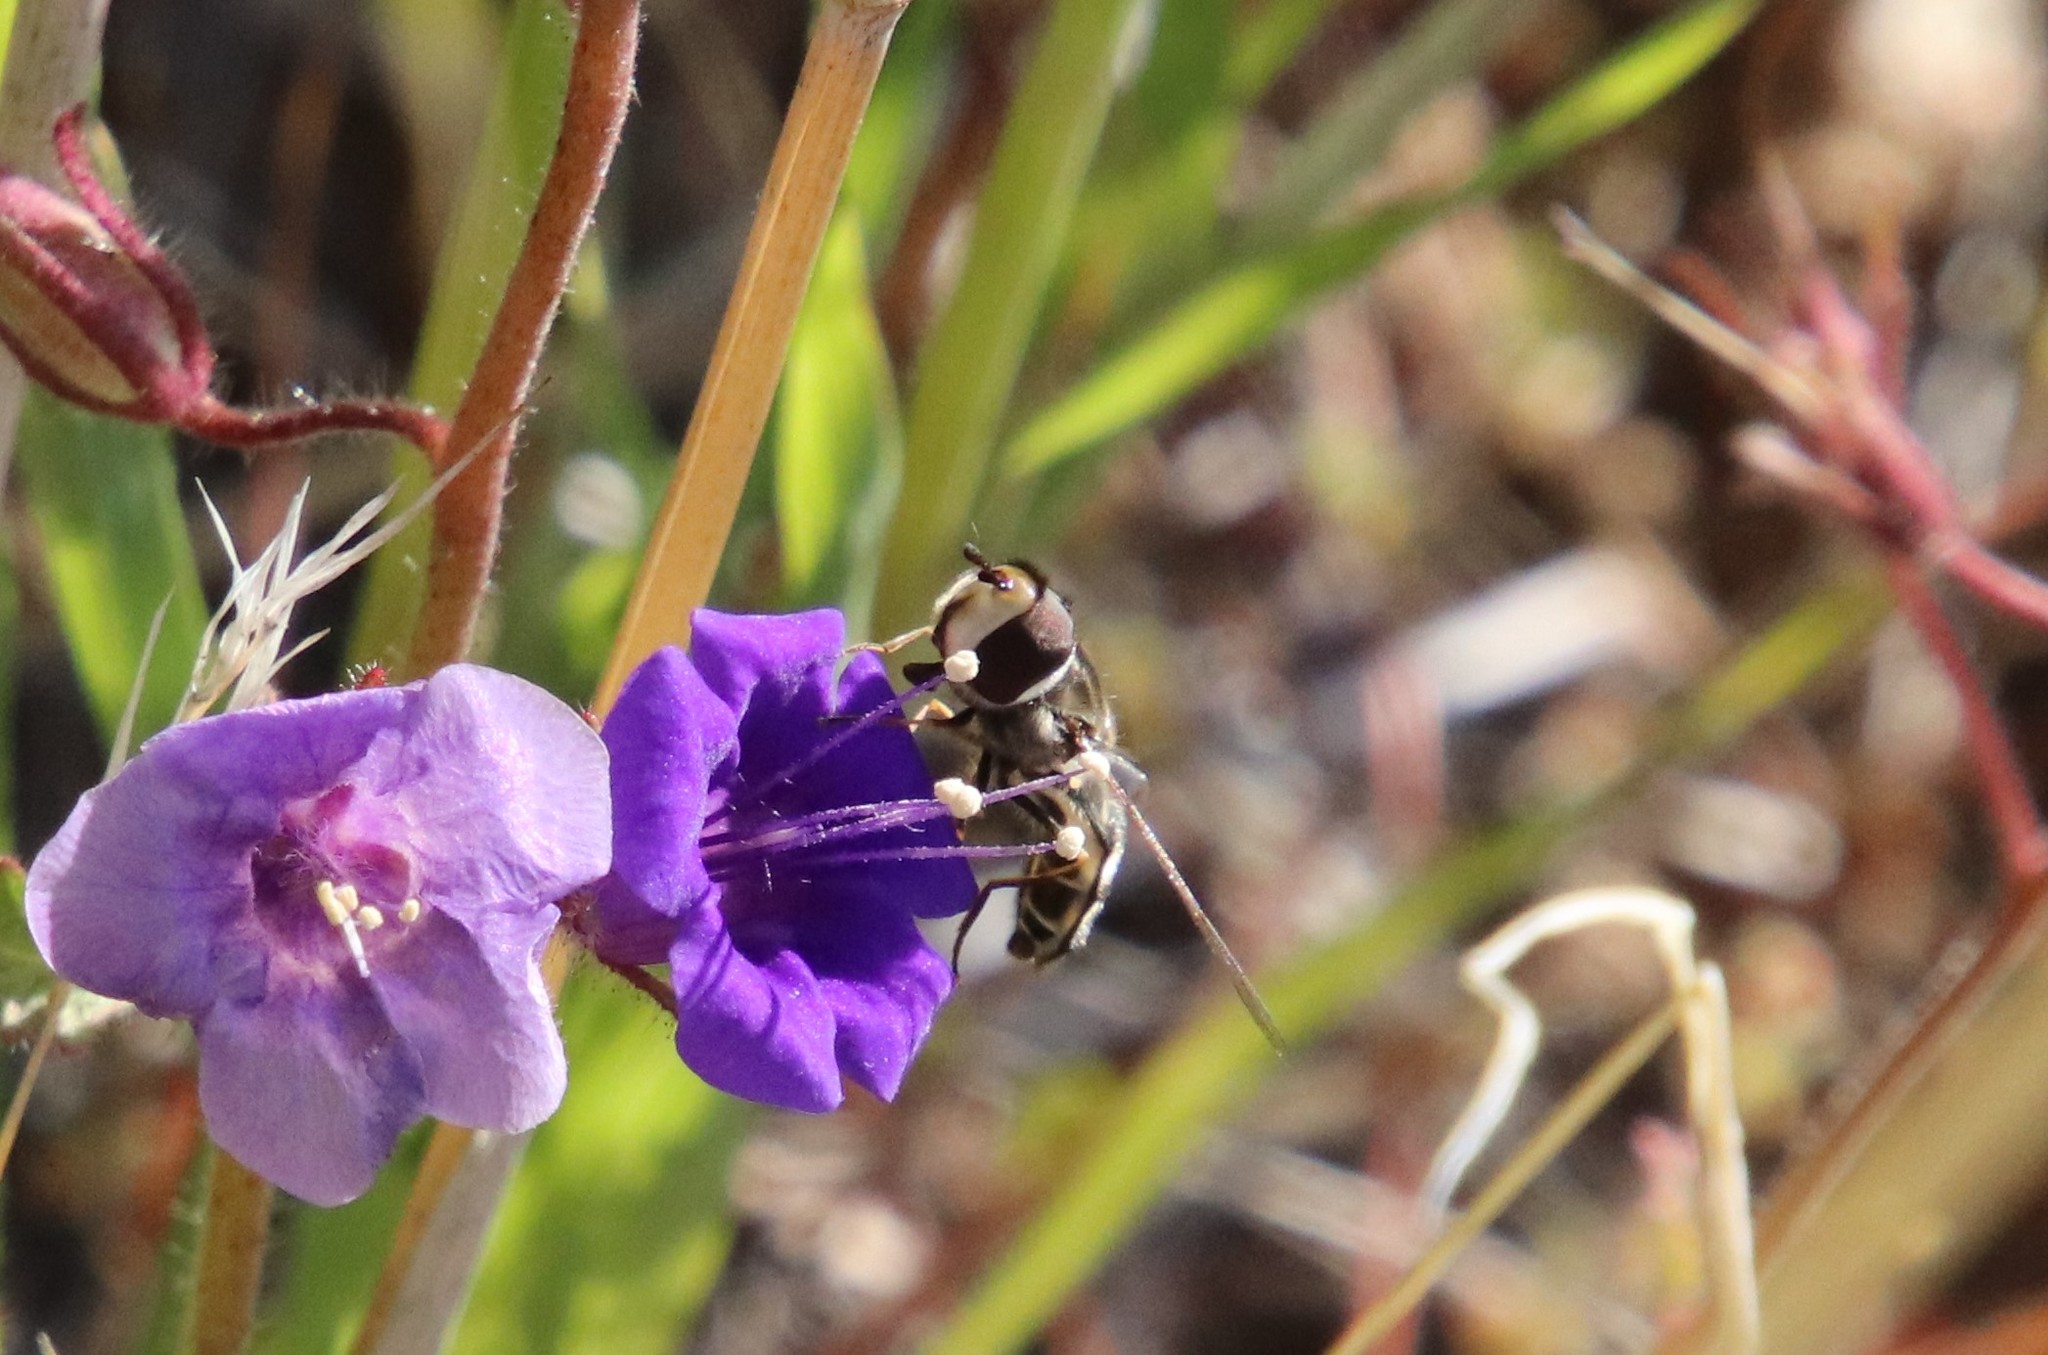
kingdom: Animalia
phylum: Arthropoda
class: Insecta
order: Diptera
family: Syrphidae
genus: Scaeva
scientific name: Scaeva affinis
